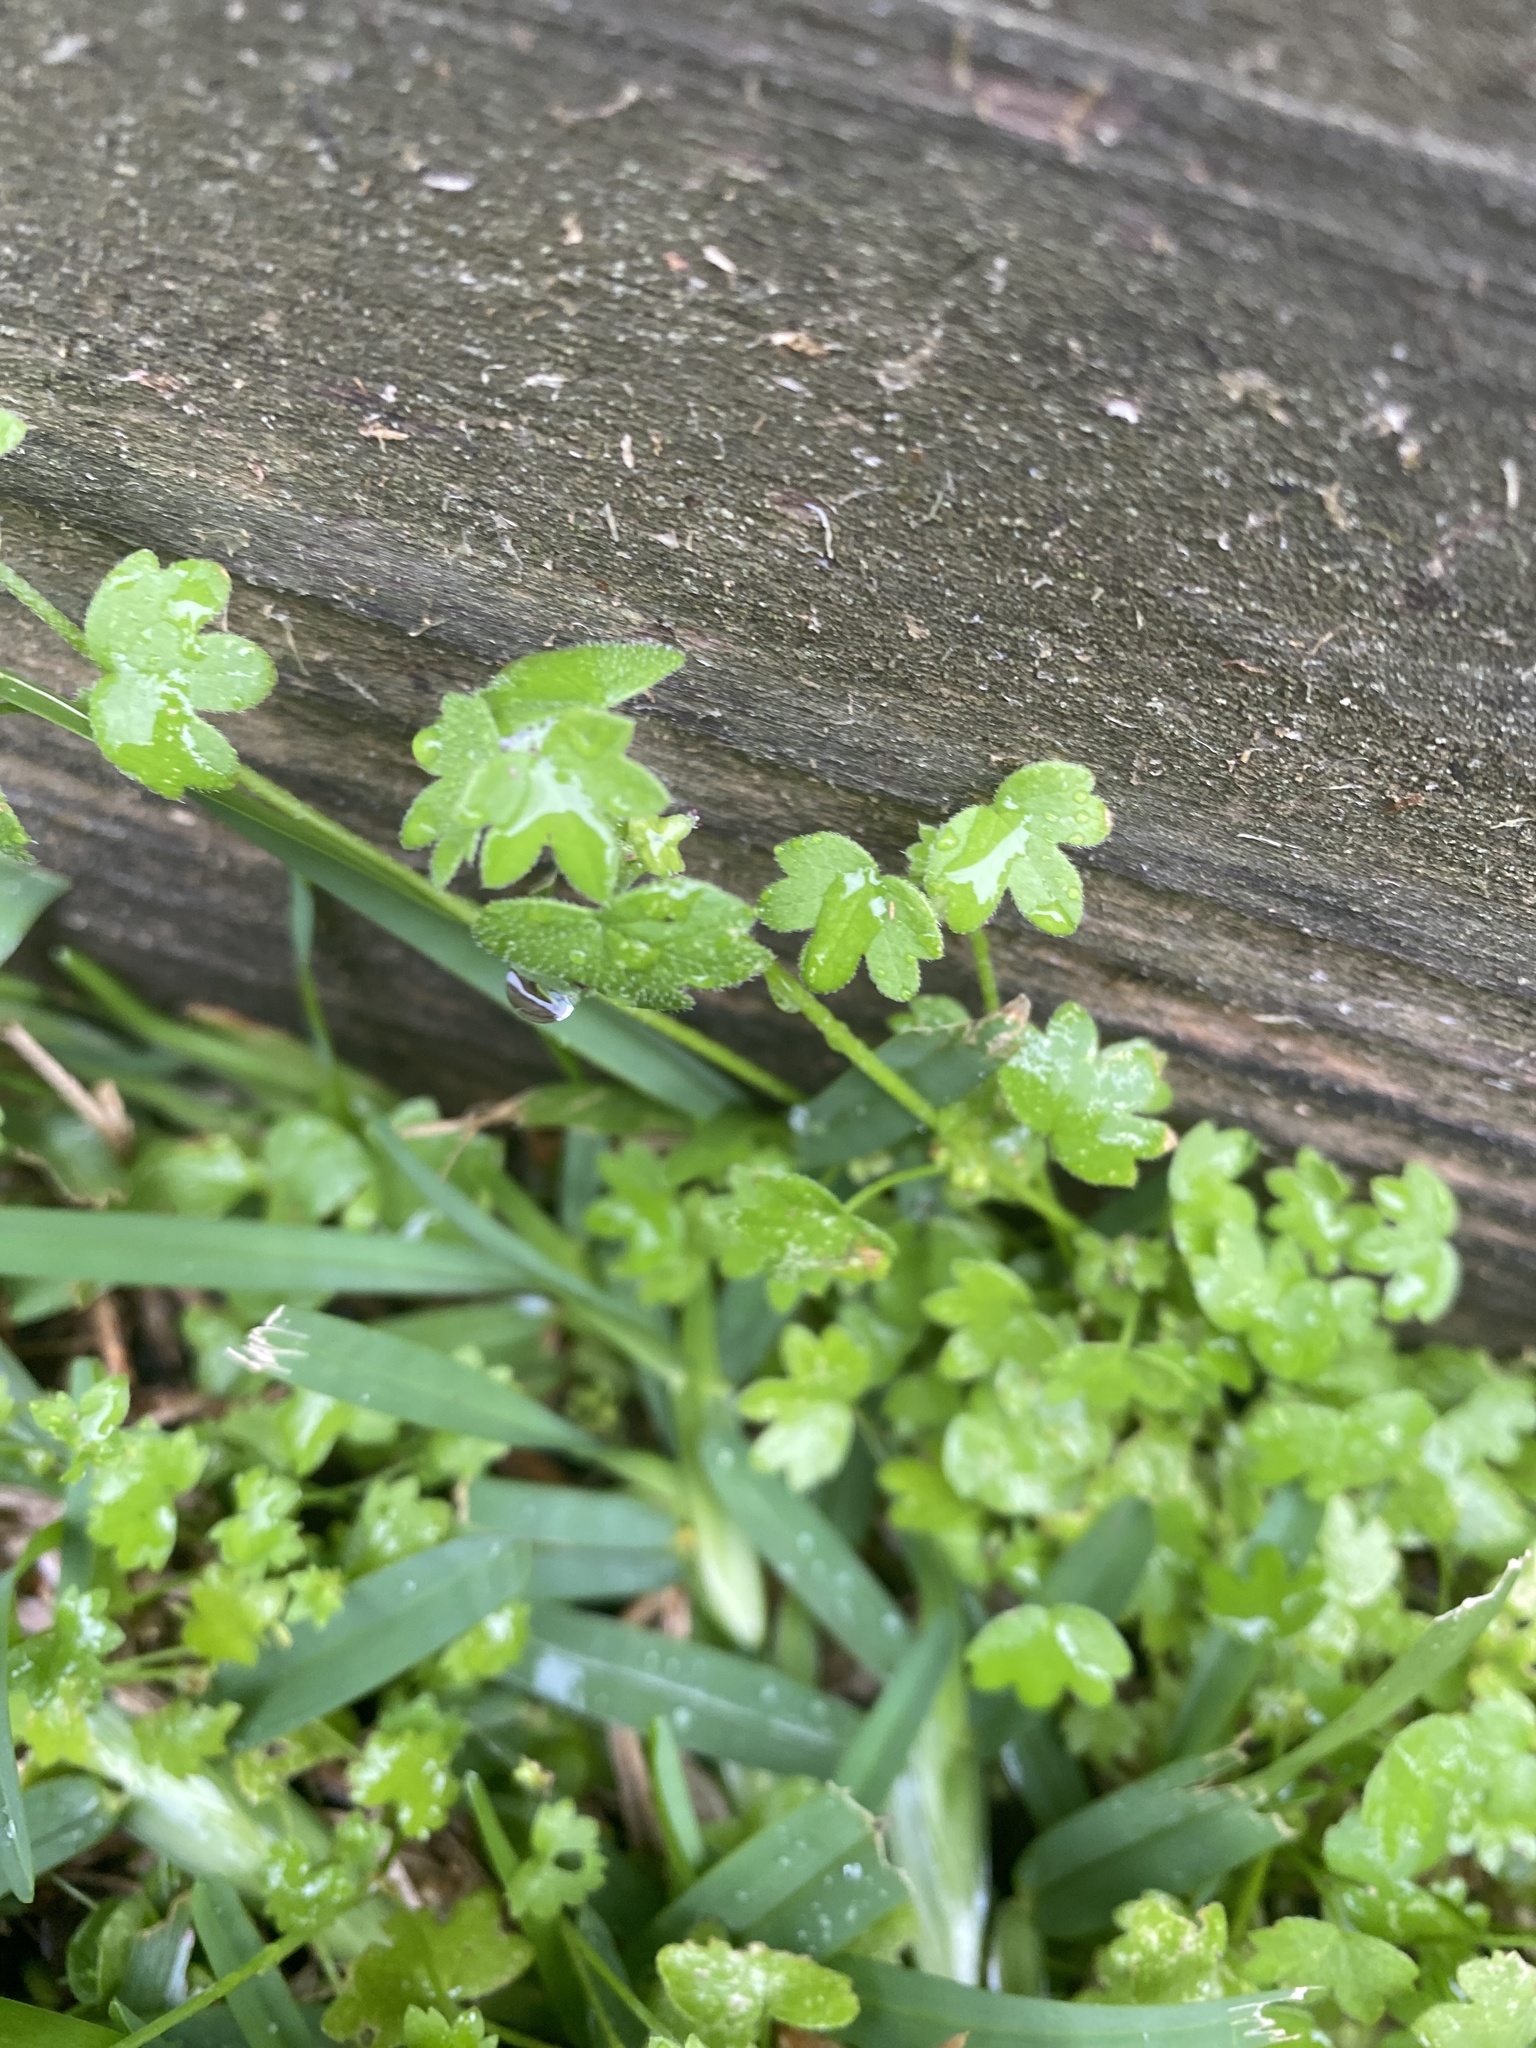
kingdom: Plantae
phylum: Tracheophyta
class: Magnoliopsida
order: Apiales
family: Apiaceae
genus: Bowlesia
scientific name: Bowlesia incana
